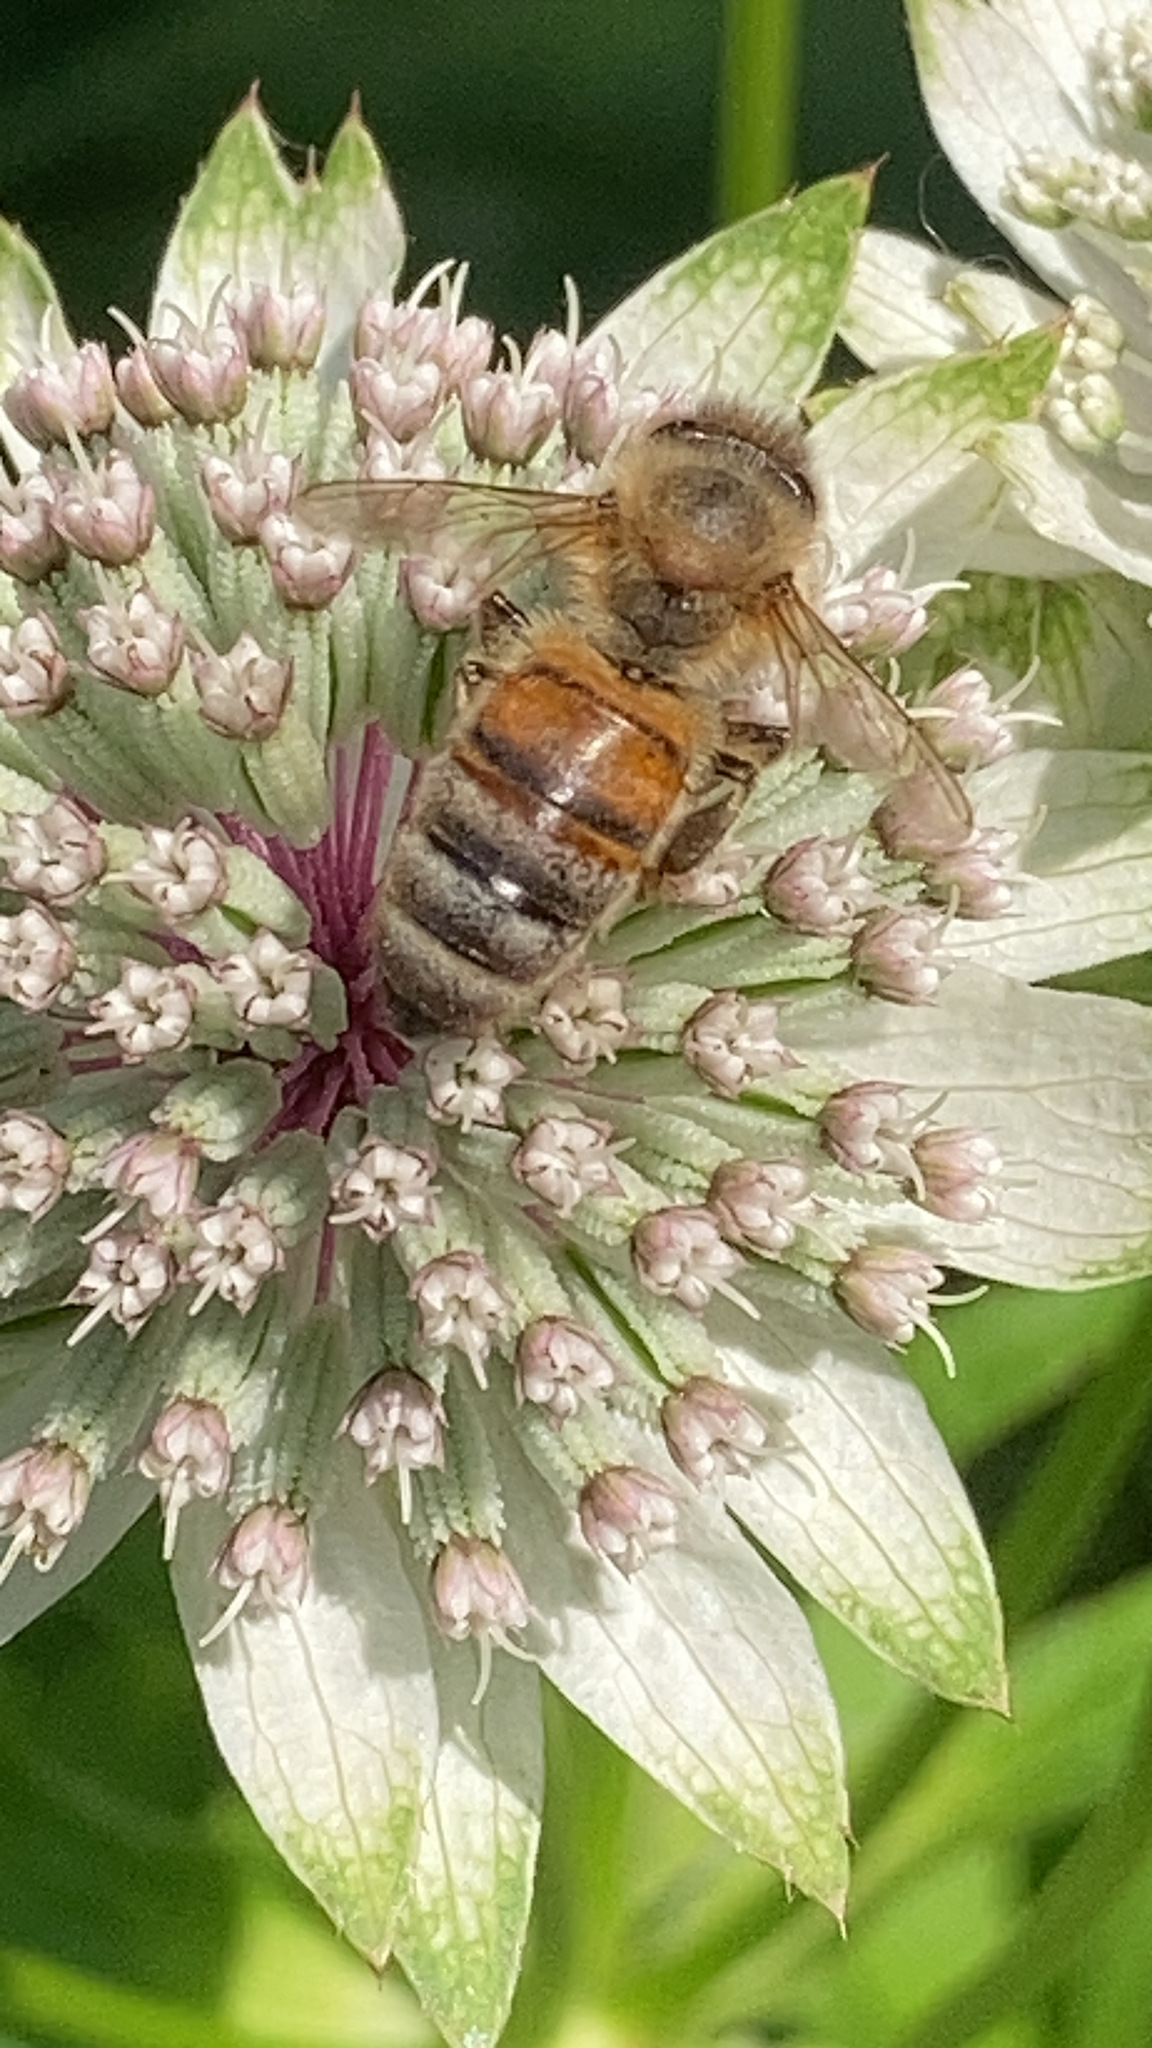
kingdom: Animalia
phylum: Arthropoda
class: Insecta
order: Hymenoptera
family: Apidae
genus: Apis
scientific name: Apis mellifera
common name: Honey bee
